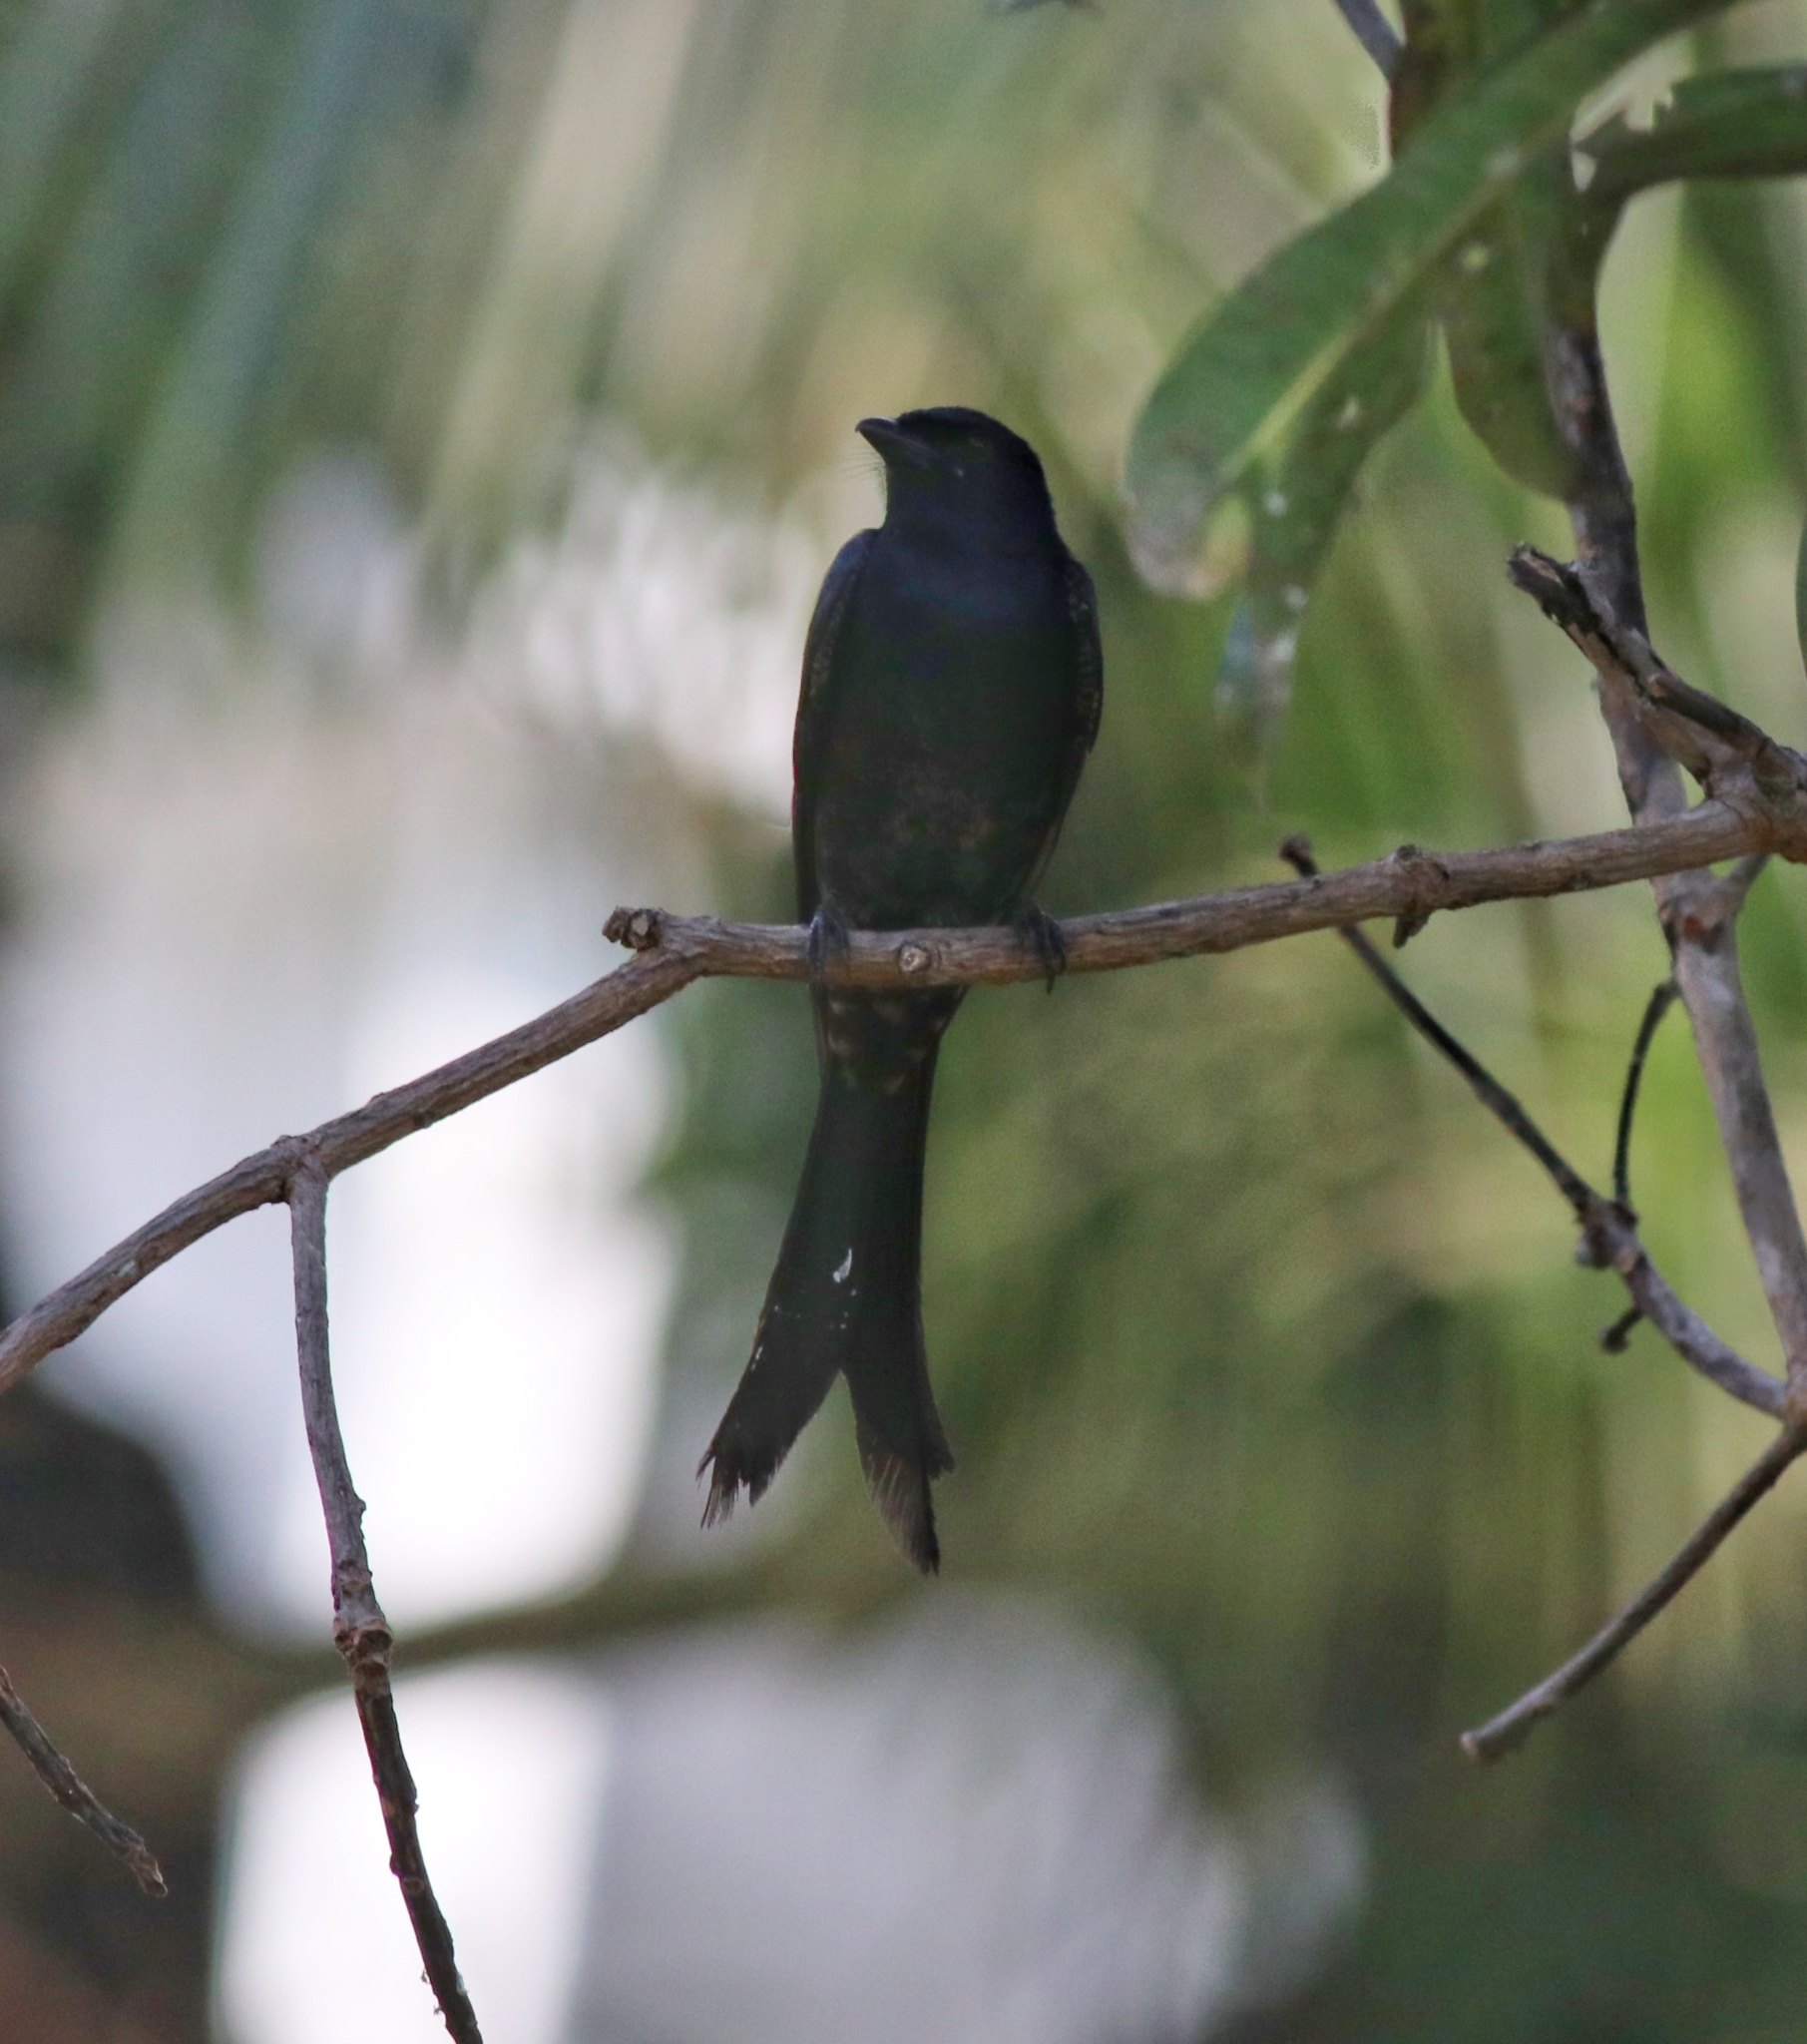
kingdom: Animalia
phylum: Chordata
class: Aves
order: Passeriformes
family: Dicruridae
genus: Dicrurus
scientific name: Dicrurus macrocercus
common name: Black drongo
